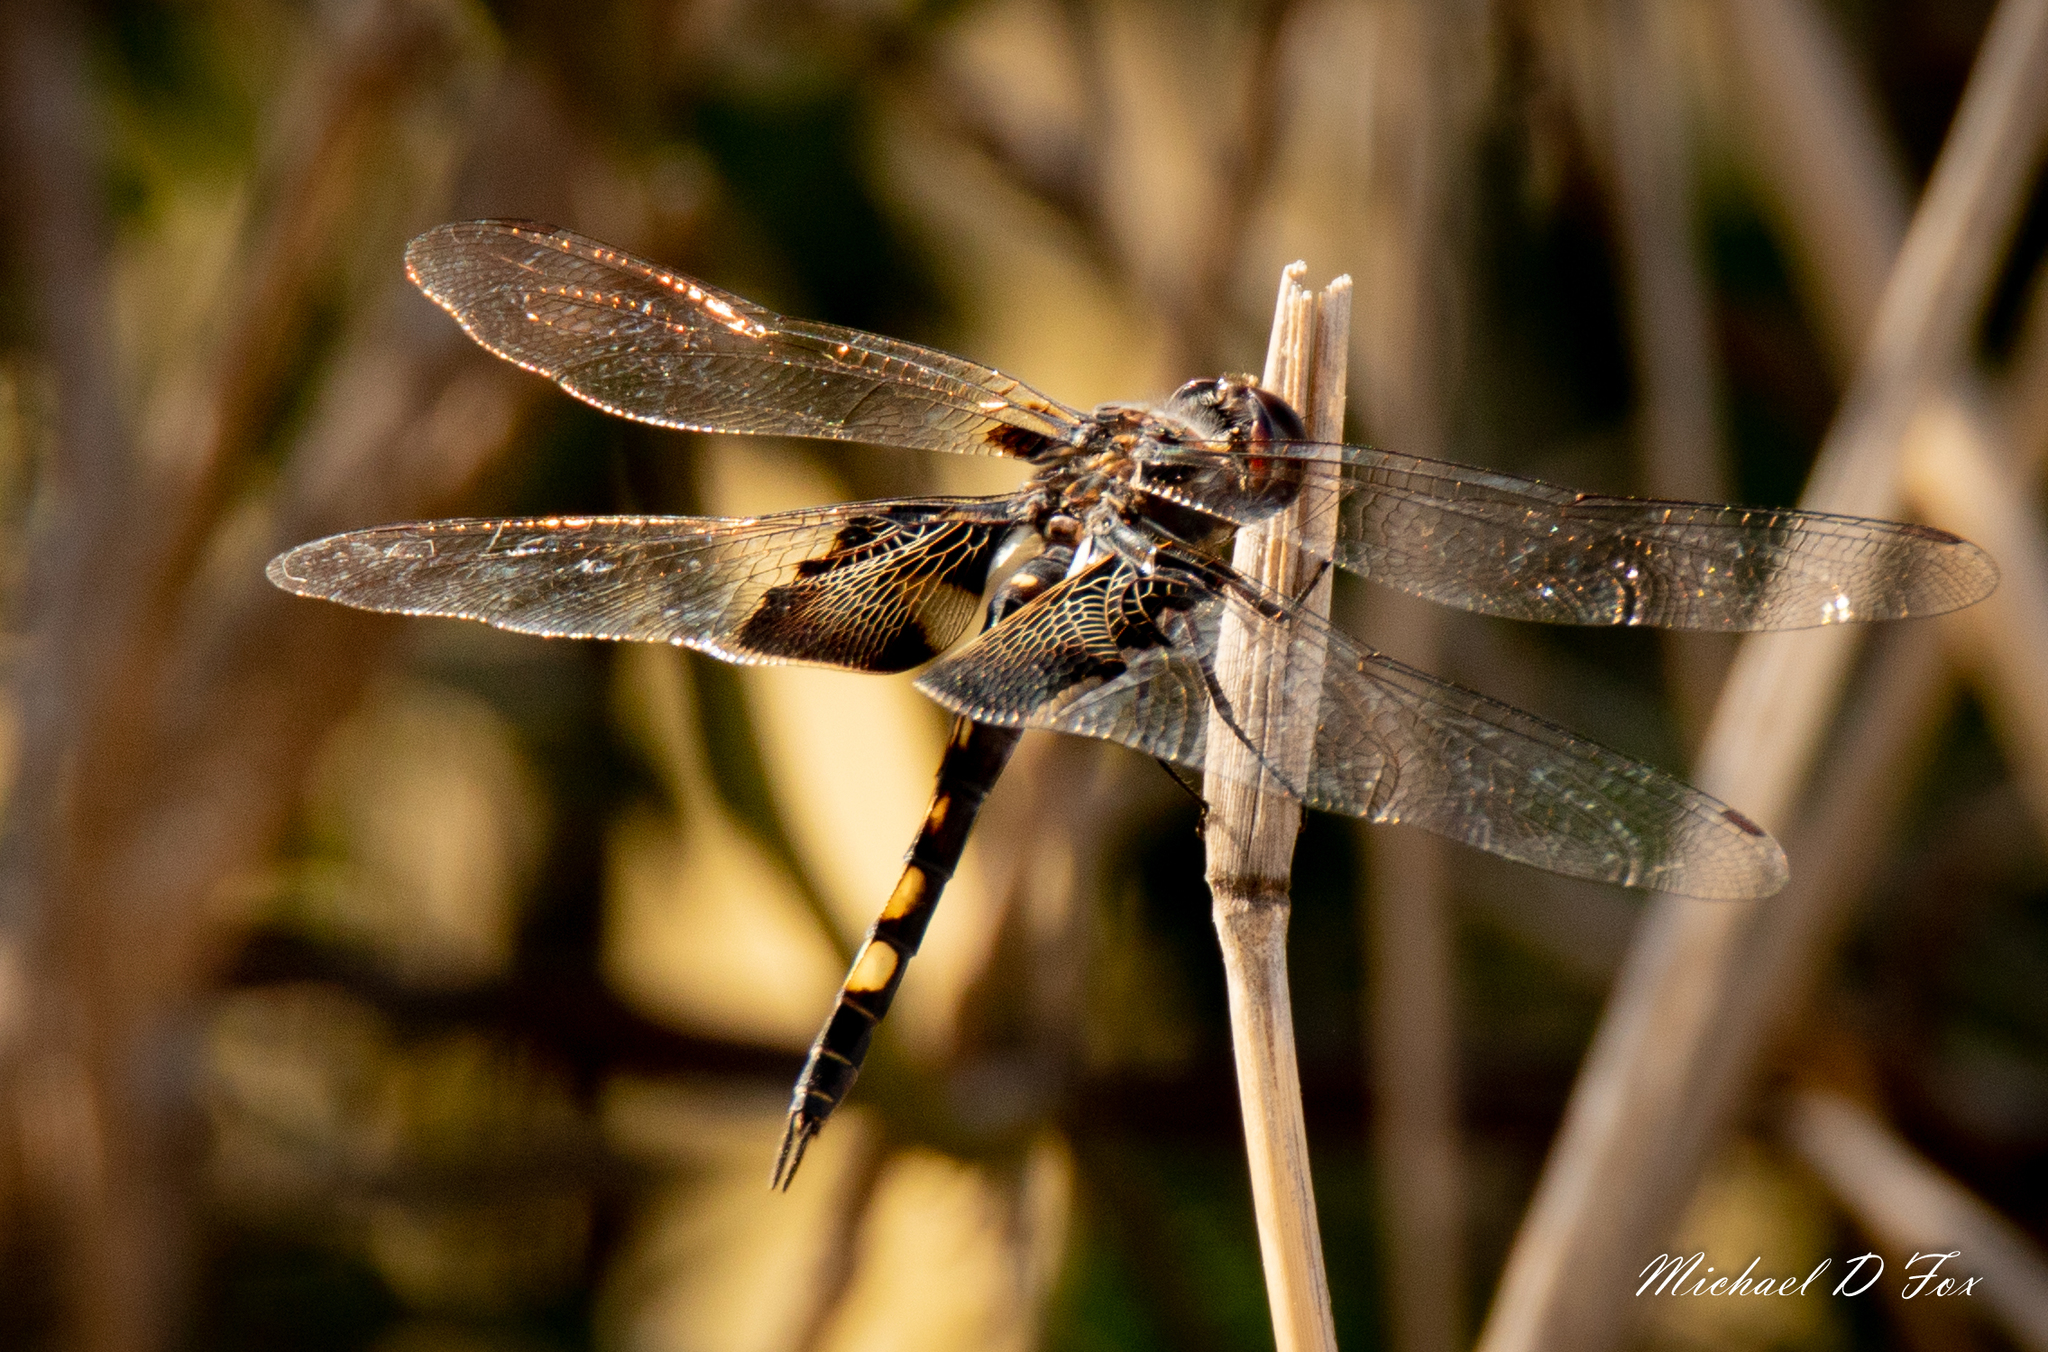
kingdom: Animalia
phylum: Arthropoda
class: Insecta
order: Odonata
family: Libellulidae
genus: Tramea
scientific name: Tramea lacerata
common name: Black saddlebags
